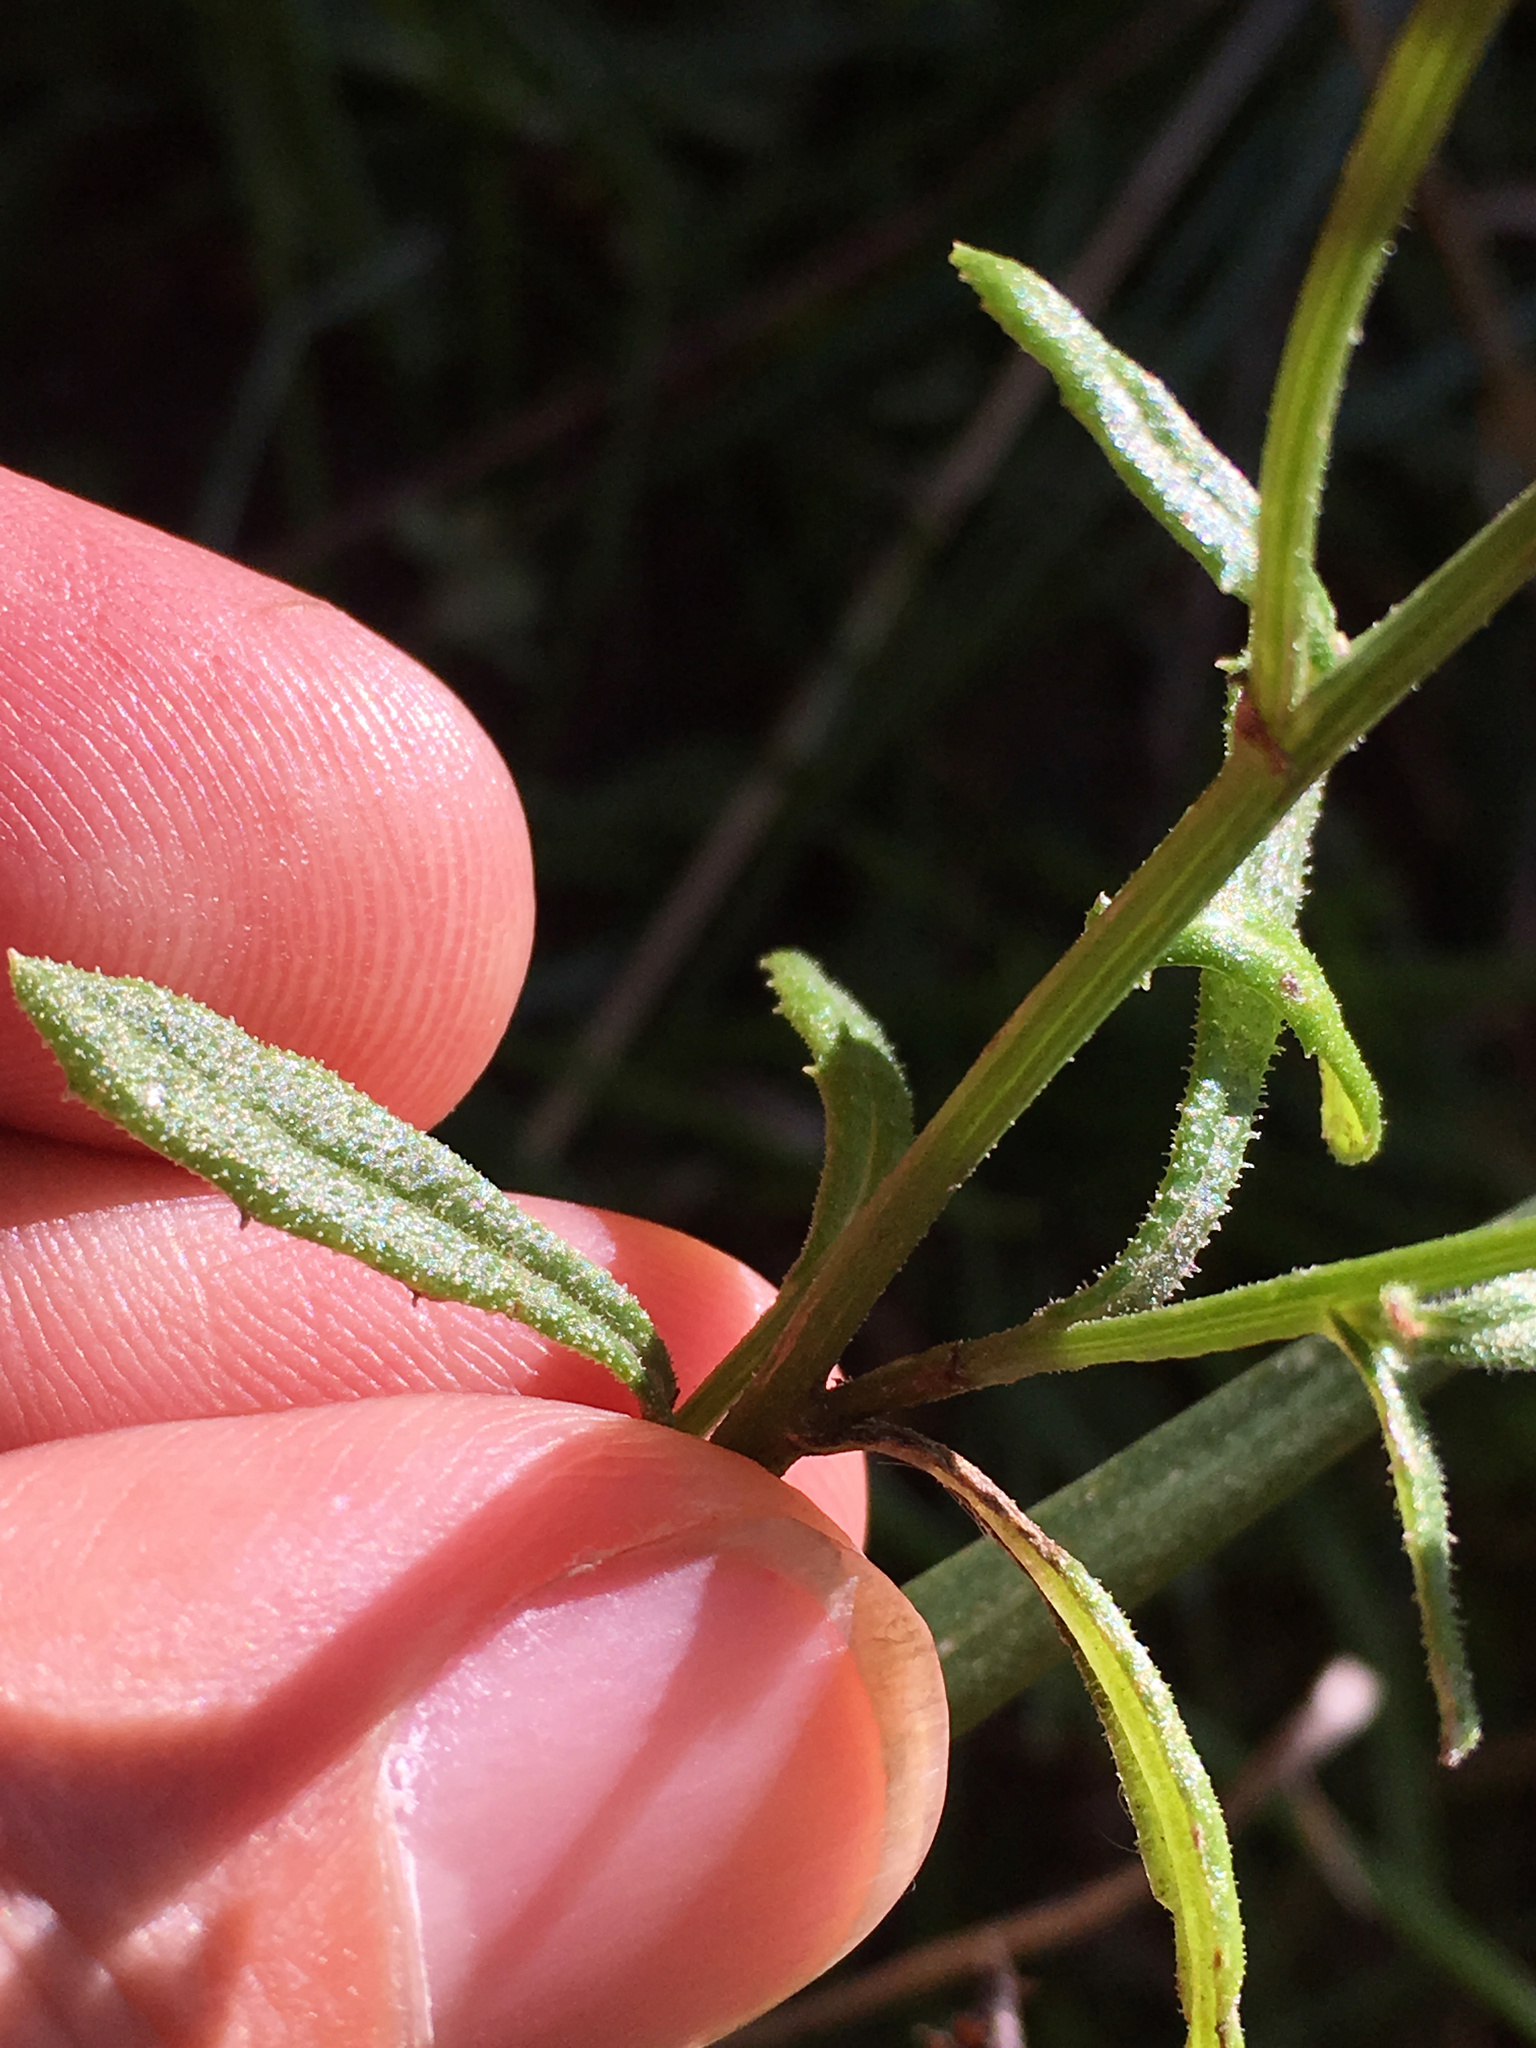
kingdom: Plantae
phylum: Tracheophyta
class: Magnoliopsida
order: Asterales
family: Asteraceae
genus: Senecio
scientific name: Senecio hispidulus
